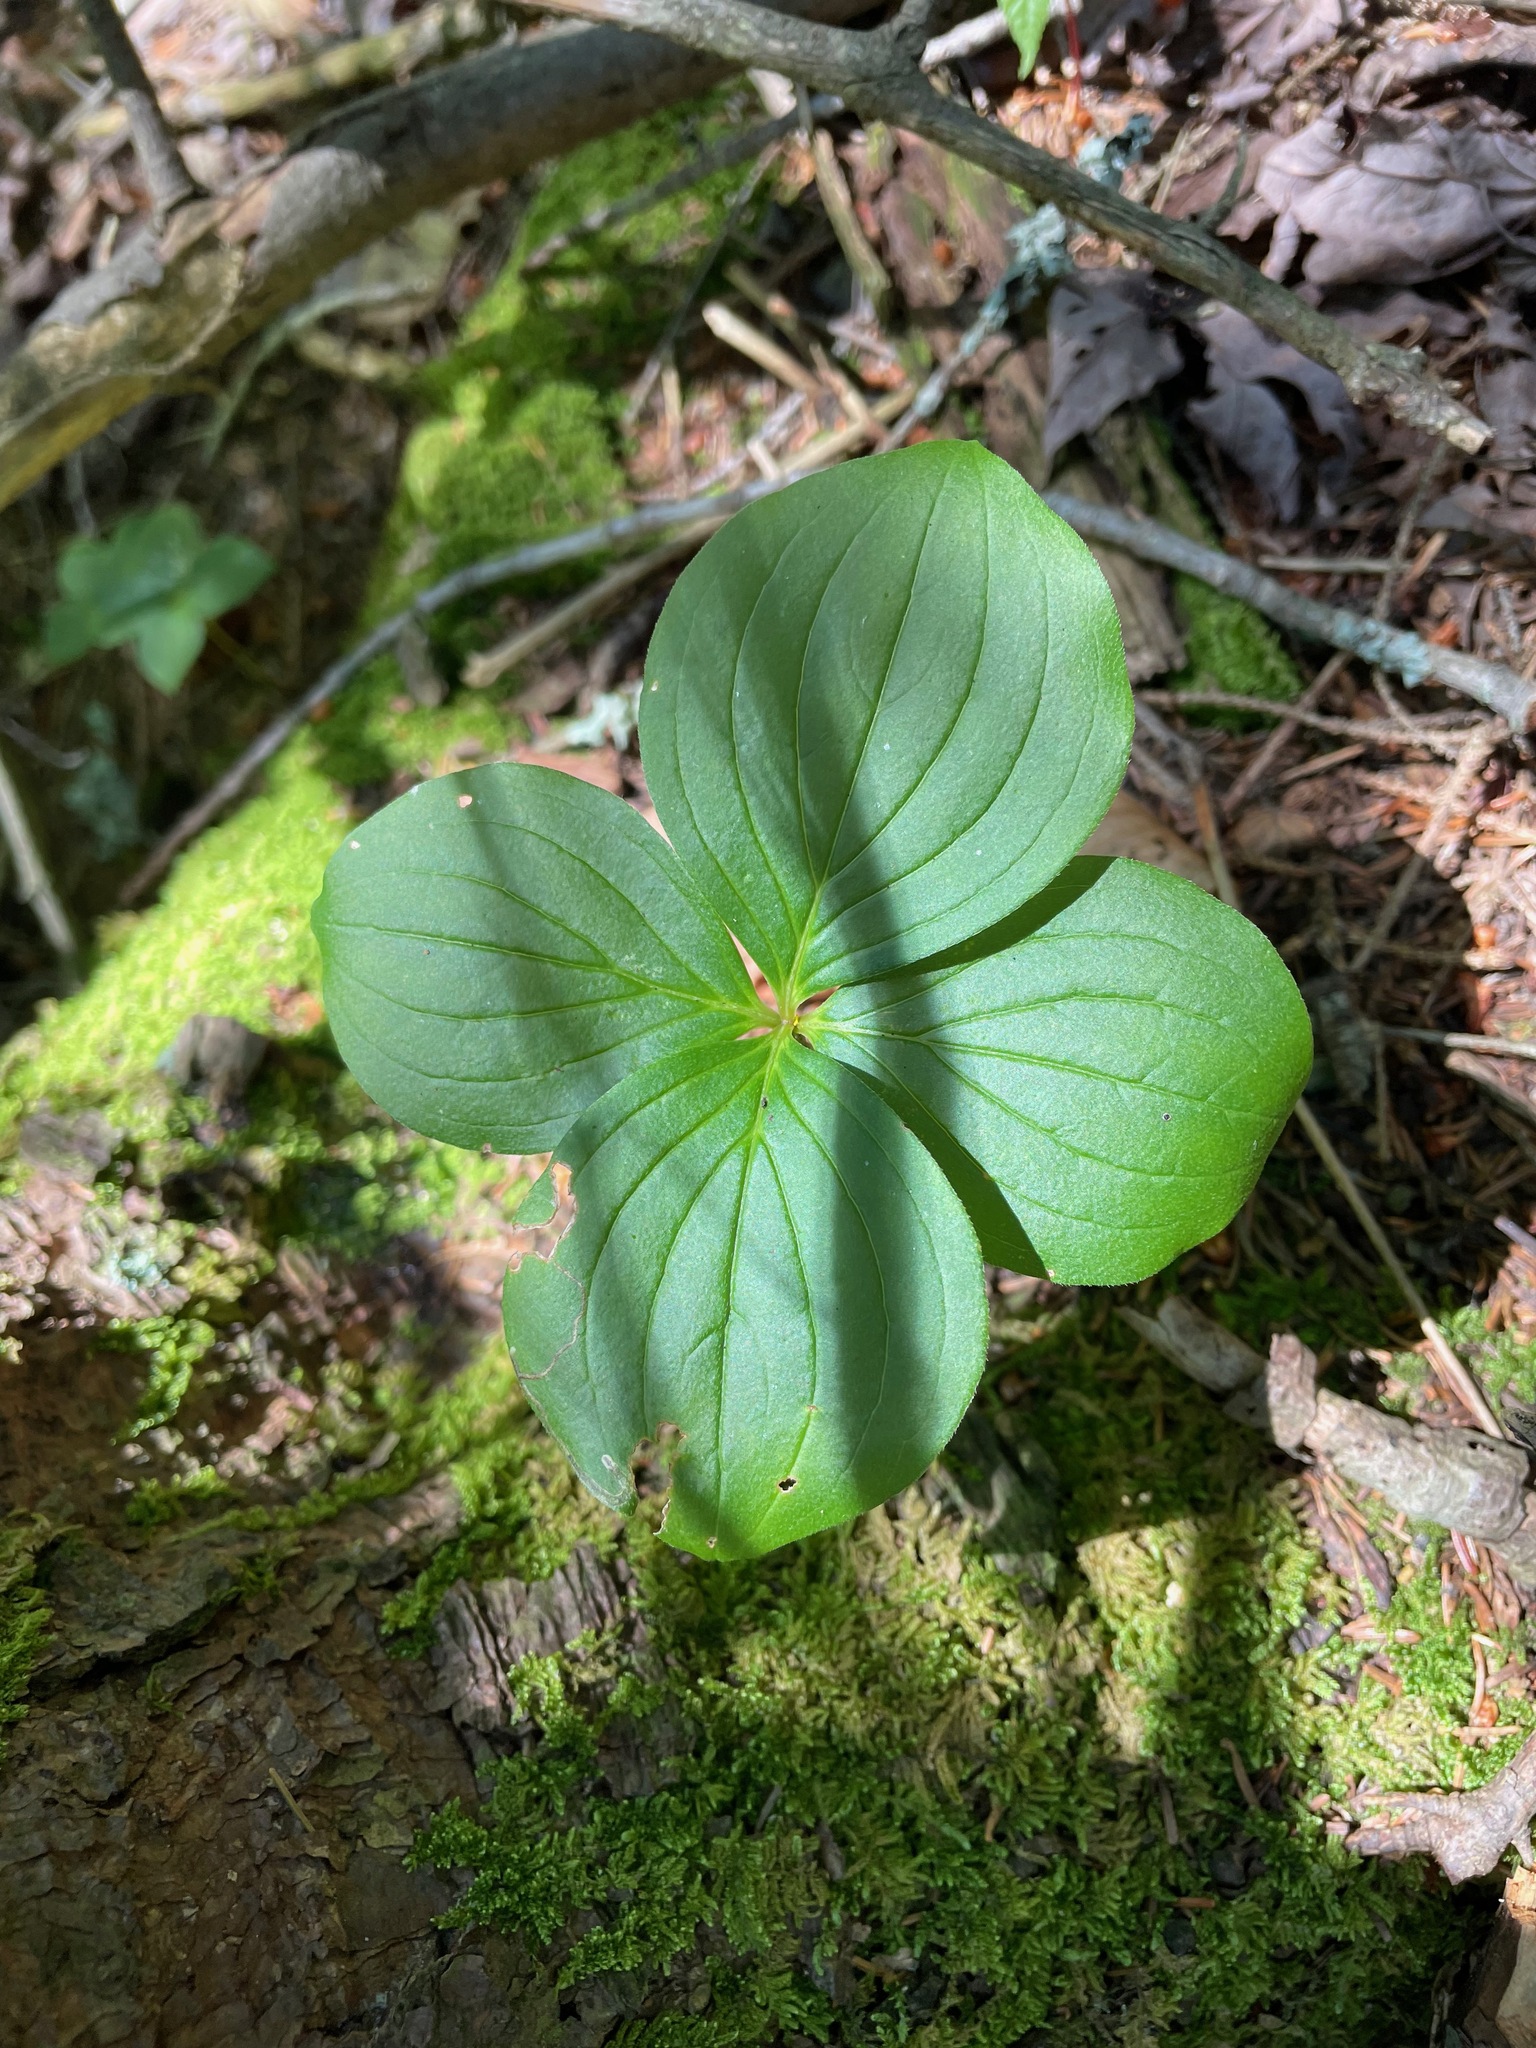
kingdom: Plantae
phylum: Tracheophyta
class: Magnoliopsida
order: Cornales
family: Cornaceae
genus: Cornus
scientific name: Cornus canadensis
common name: Creeping dogwood
